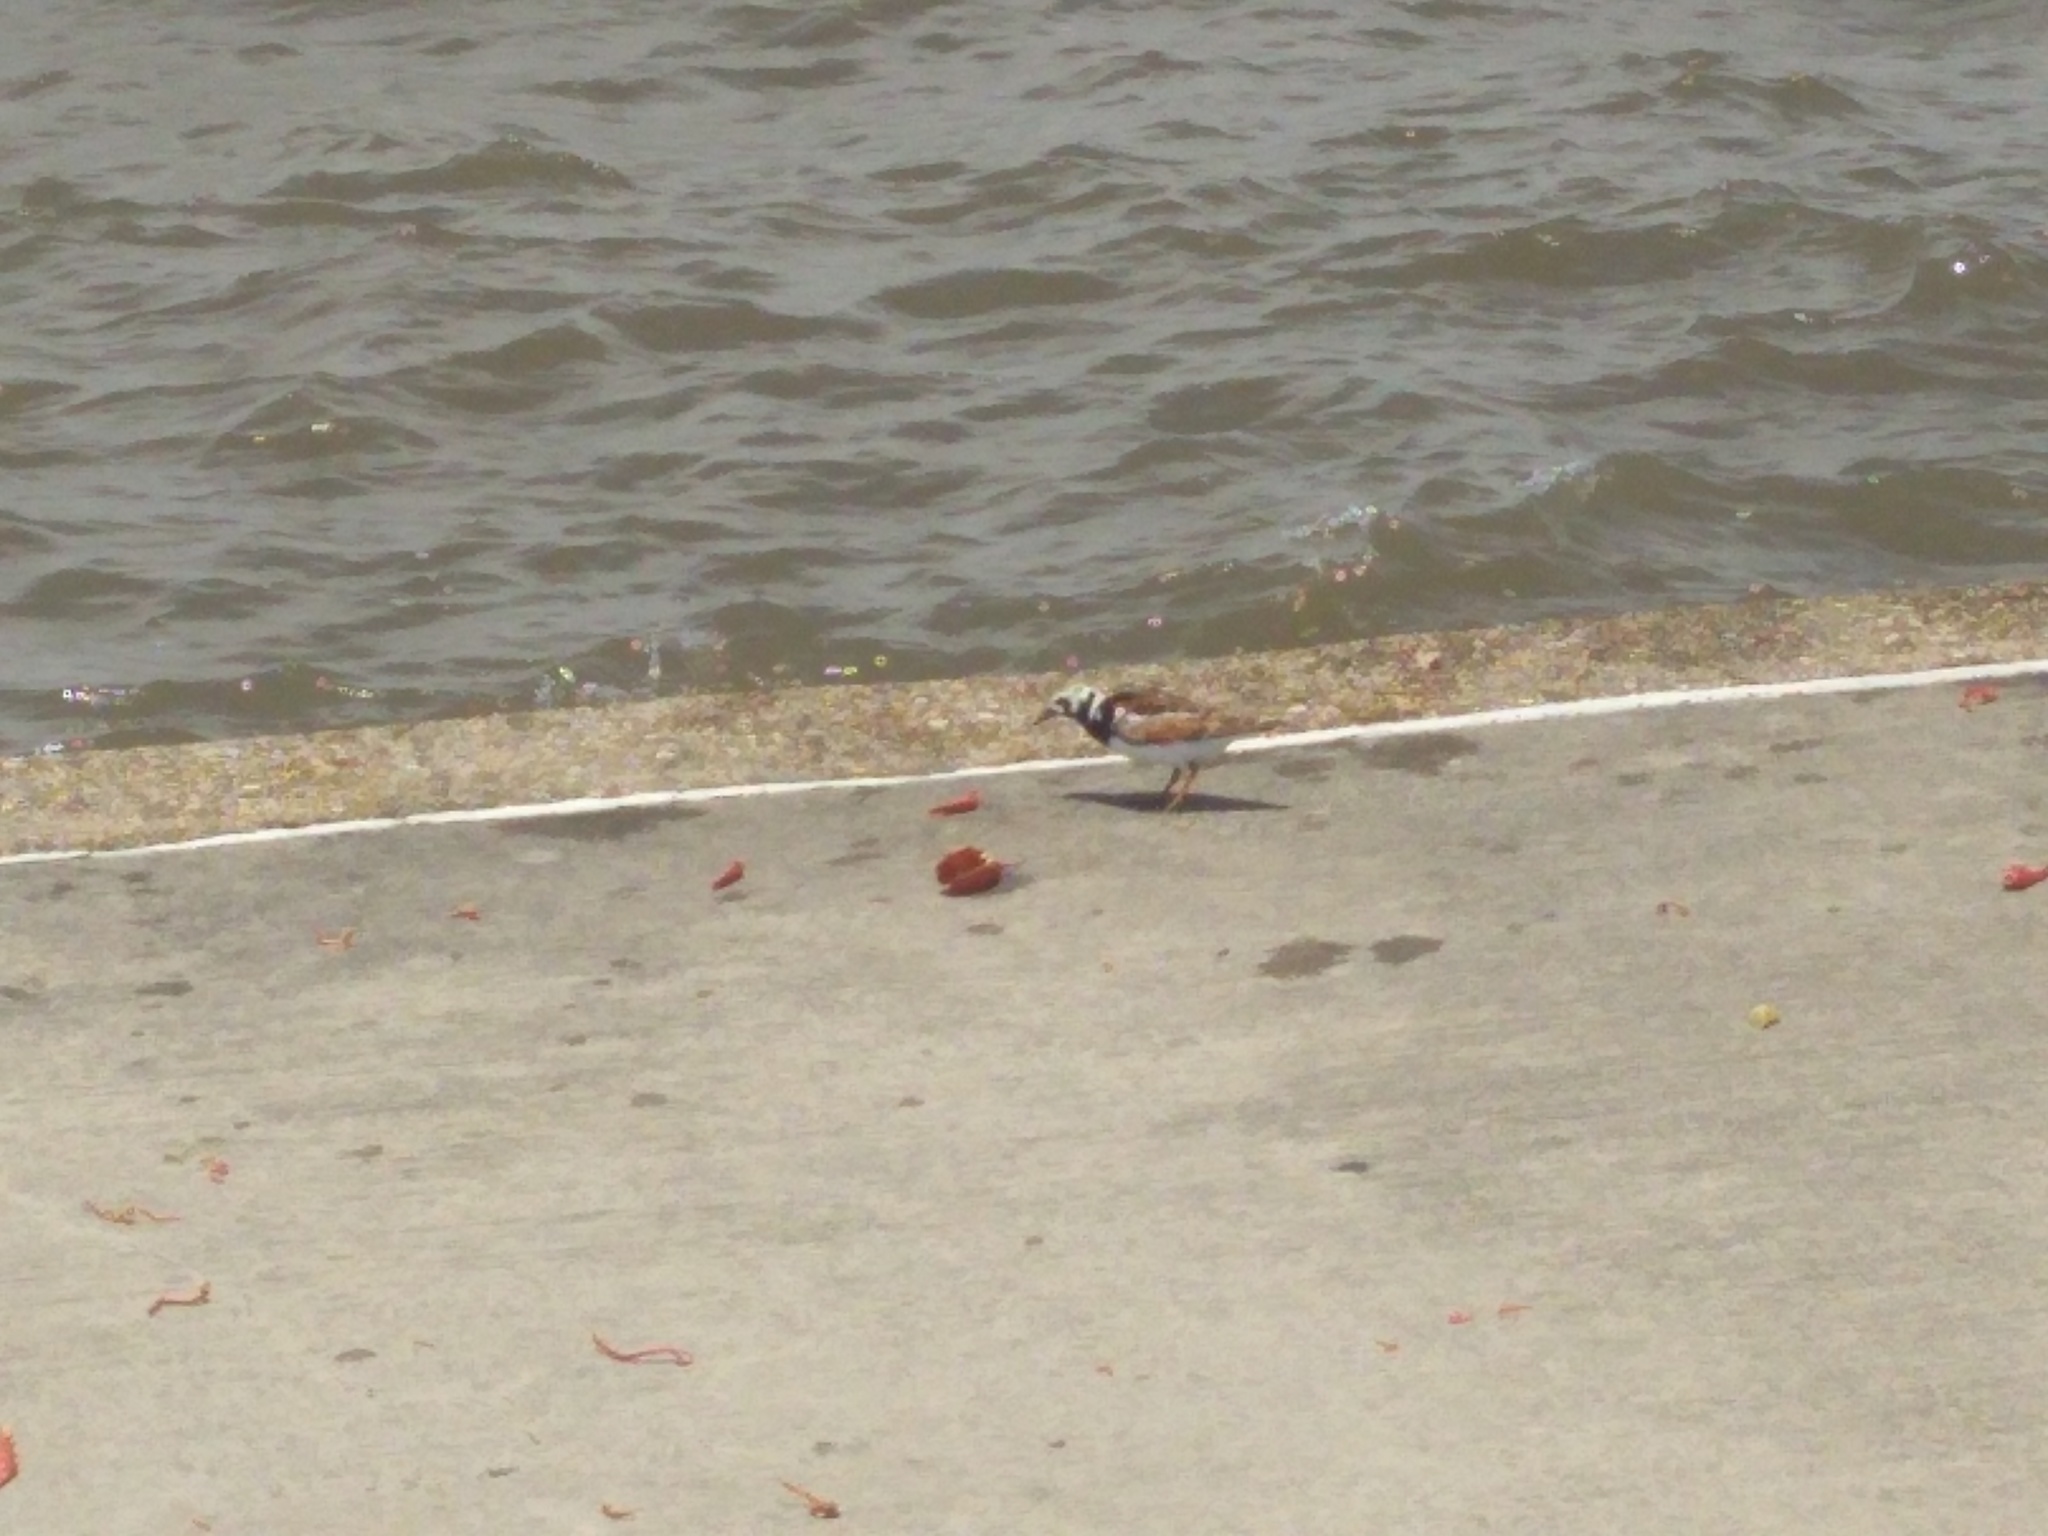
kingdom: Animalia
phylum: Chordata
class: Aves
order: Charadriiformes
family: Scolopacidae
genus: Arenaria
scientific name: Arenaria interpres
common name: Ruddy turnstone
